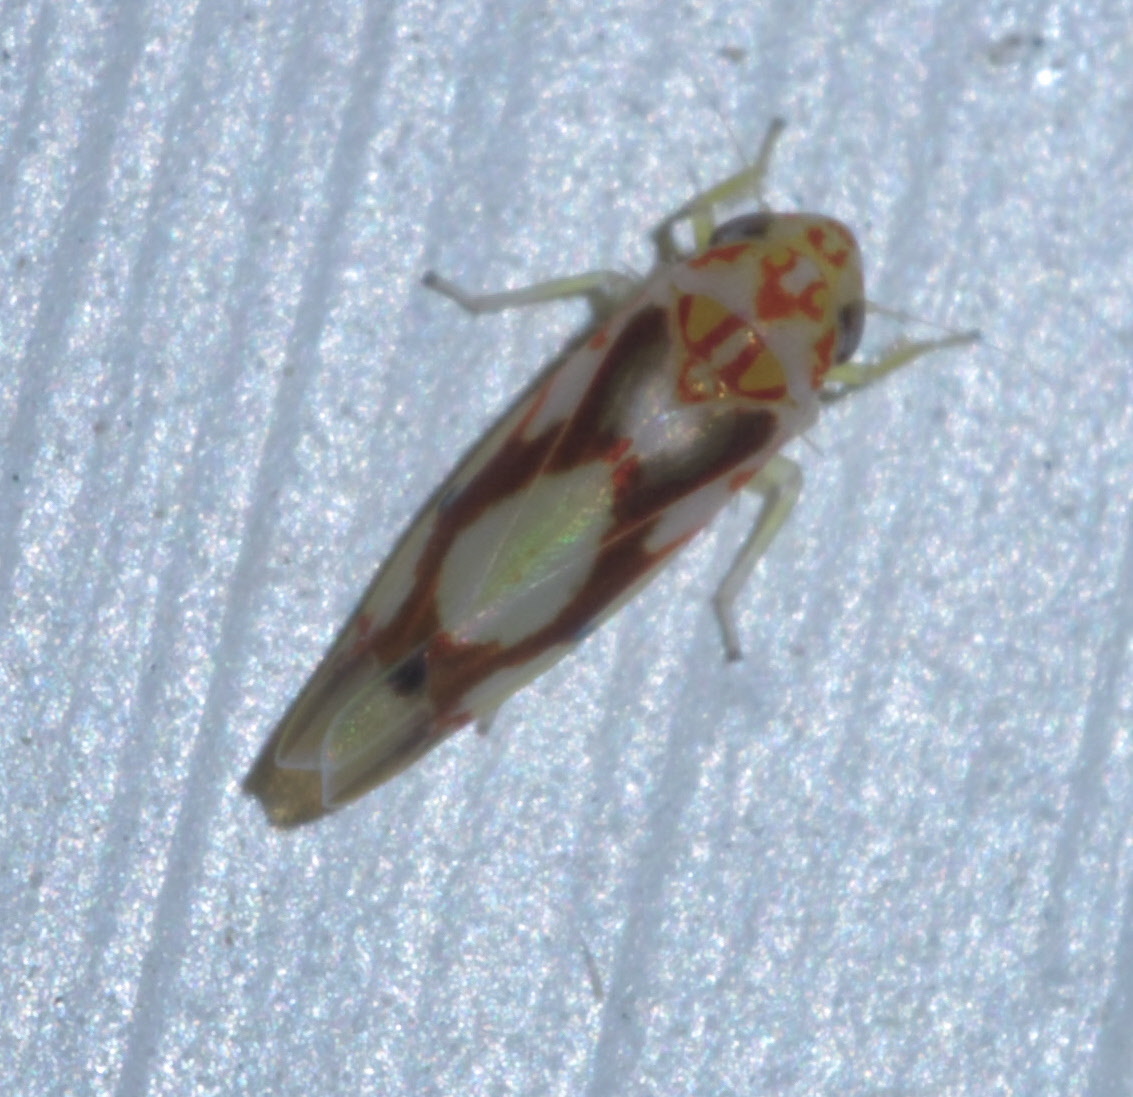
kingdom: Animalia
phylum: Arthropoda
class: Insecta
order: Hemiptera
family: Cicadellidae
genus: Eratoneura
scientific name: Eratoneura ligata
